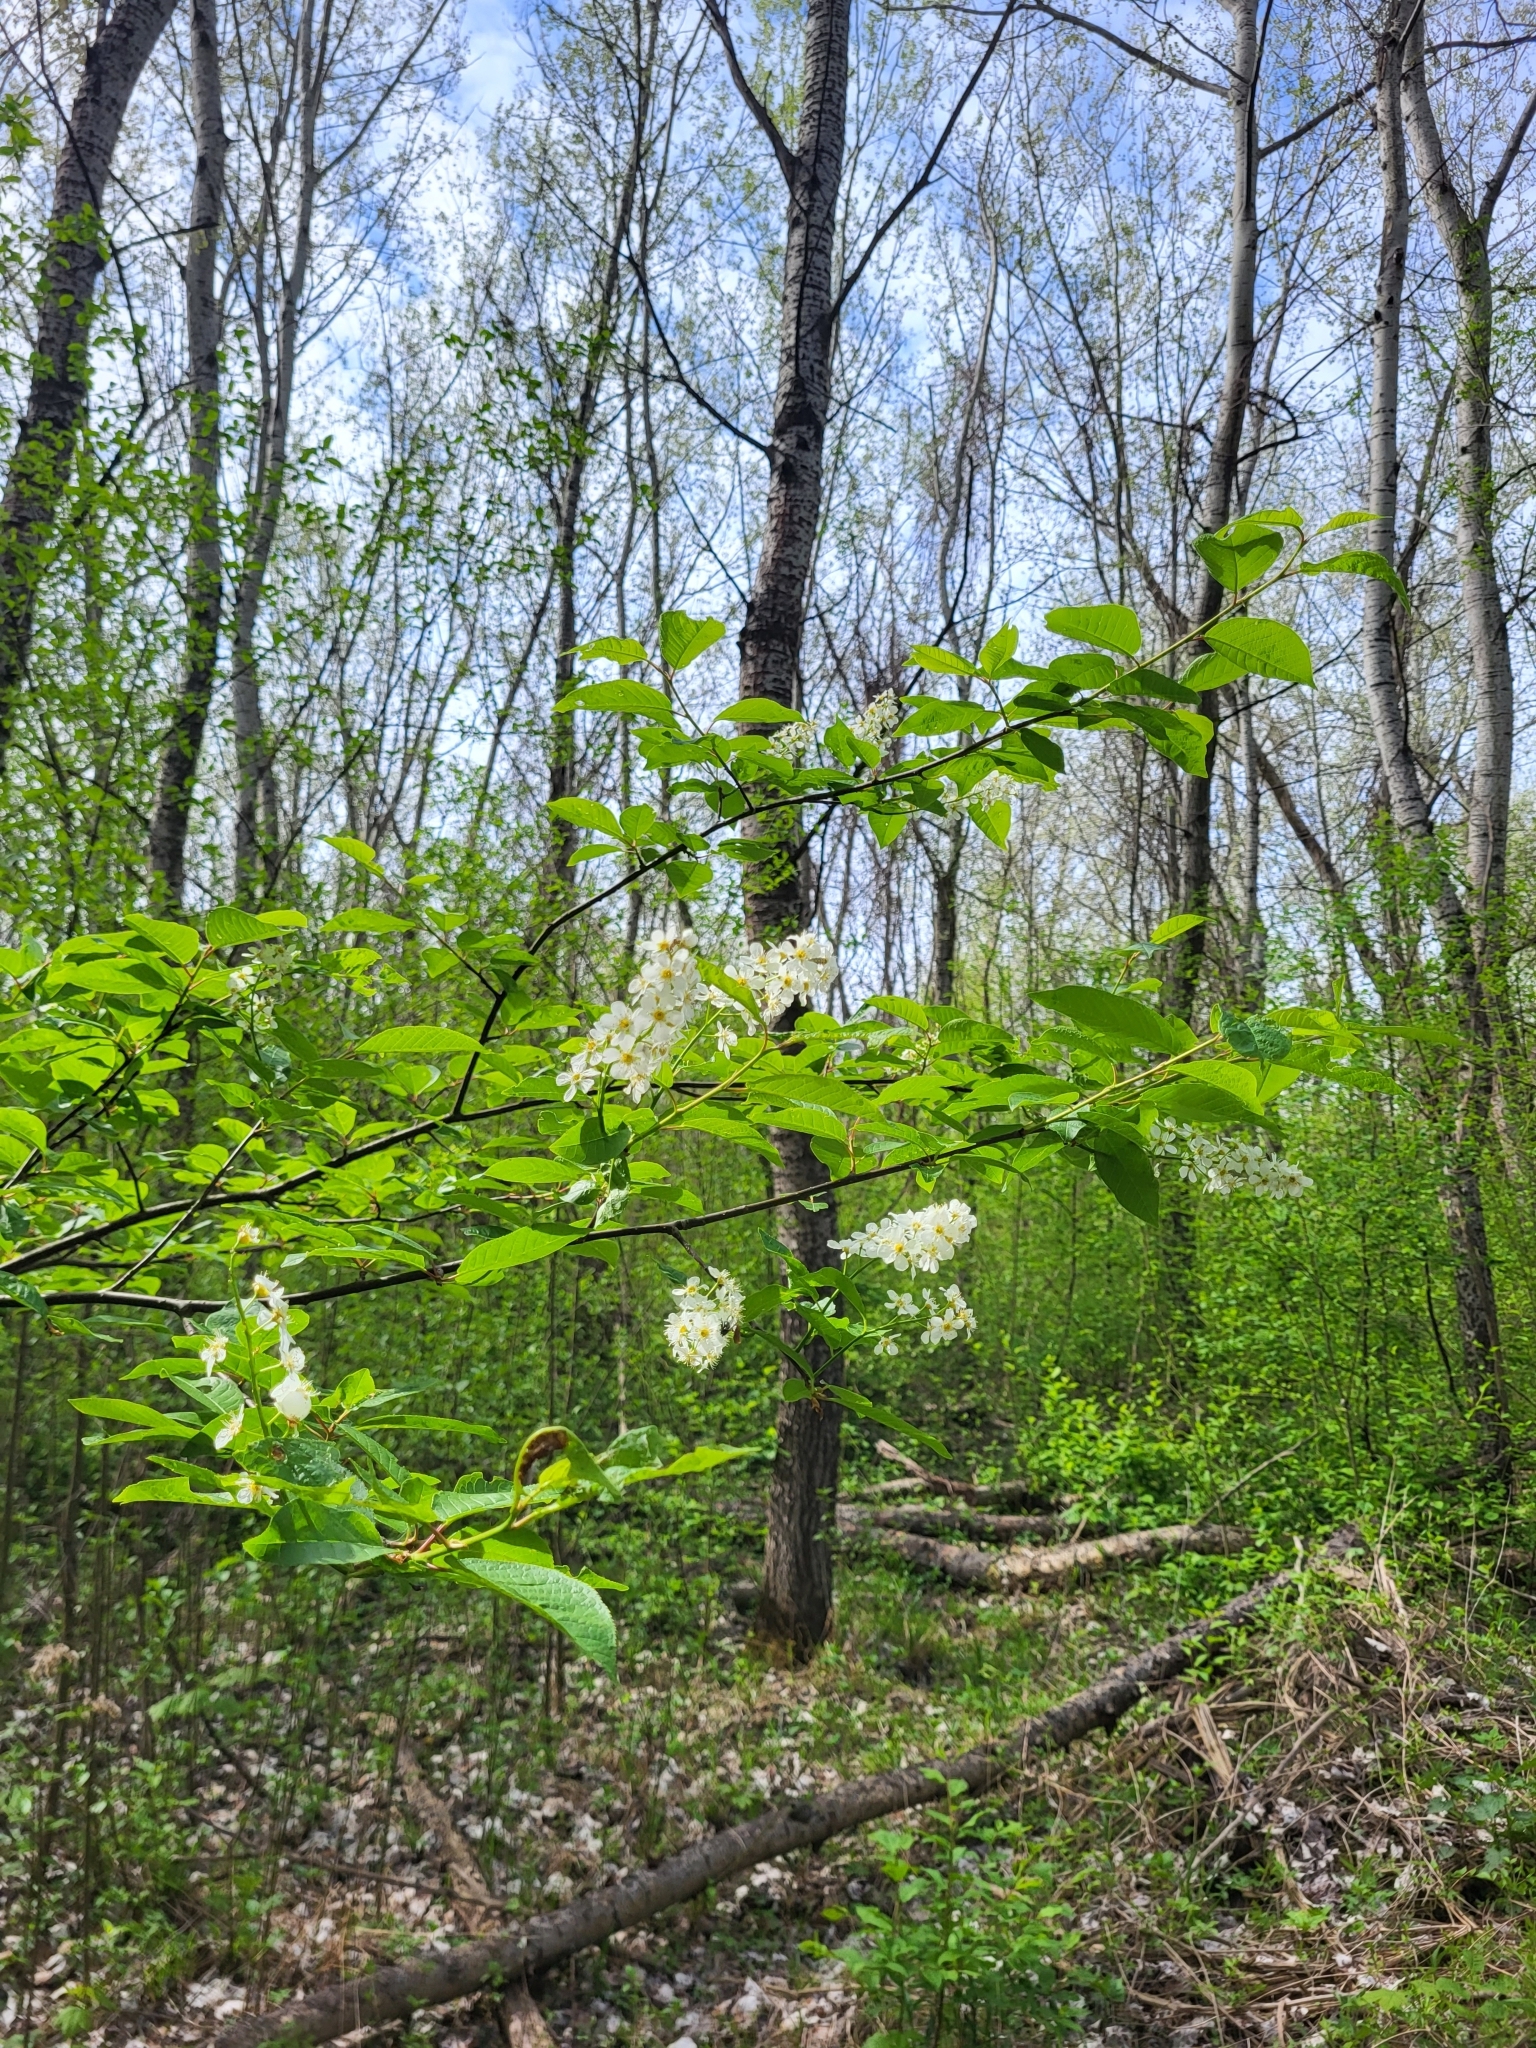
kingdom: Plantae
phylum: Tracheophyta
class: Magnoliopsida
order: Rosales
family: Rosaceae
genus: Prunus
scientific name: Prunus padus
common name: Bird cherry
